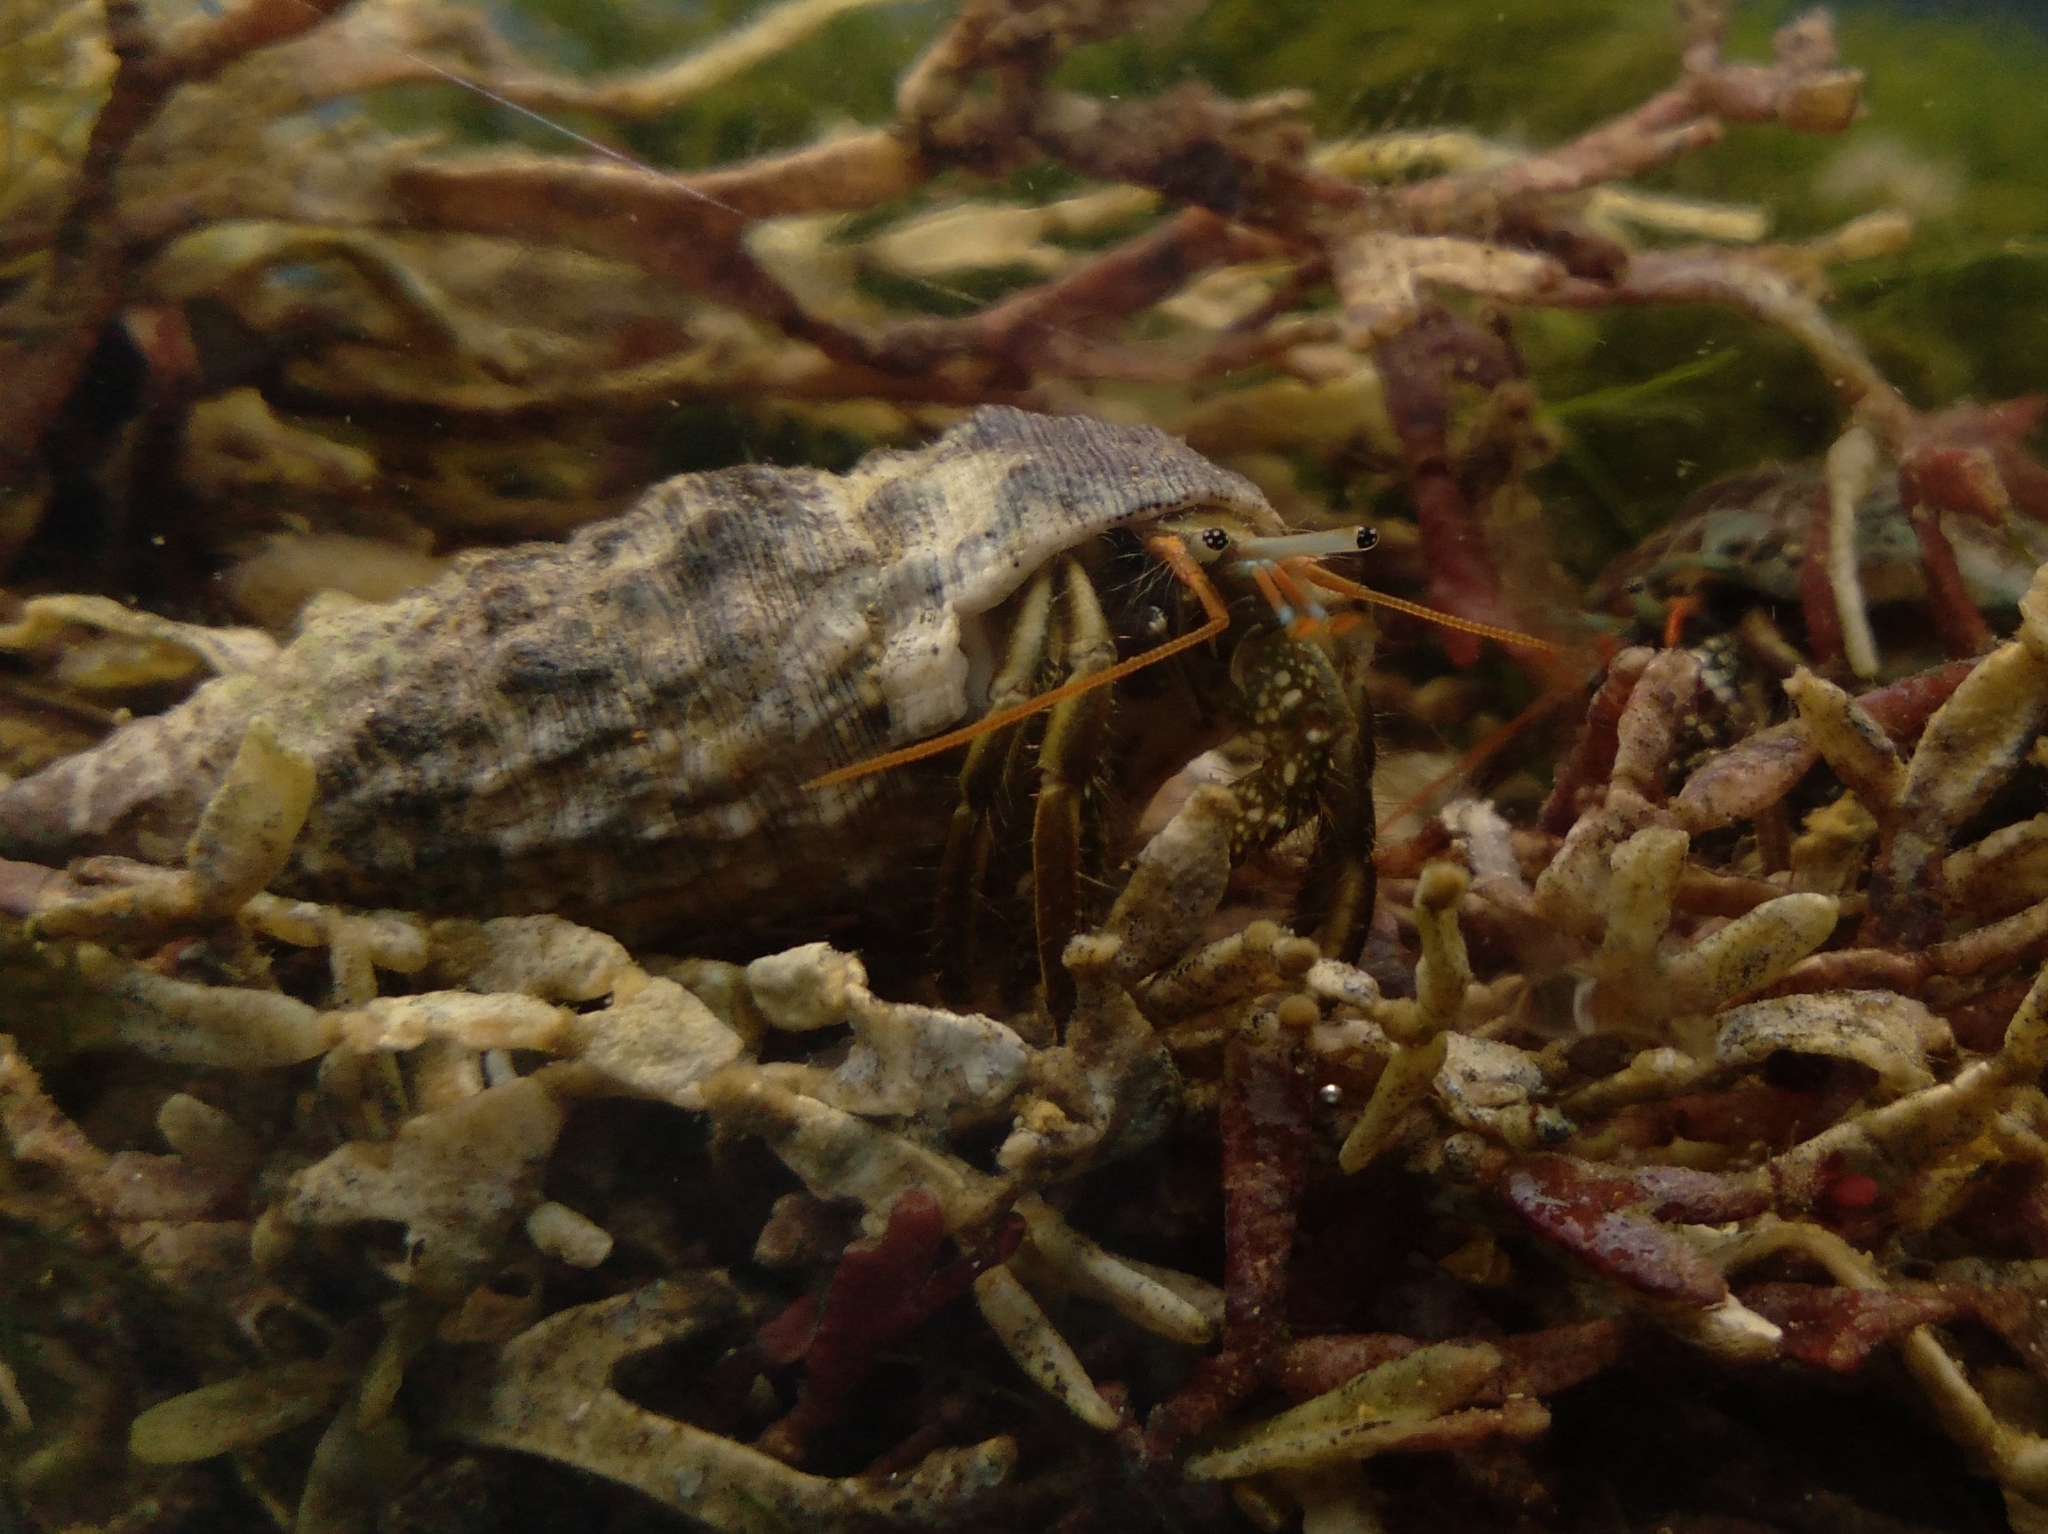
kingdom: Animalia
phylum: Arthropoda
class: Malacostraca
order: Decapoda
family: Diogenidae
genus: Clibanarius
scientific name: Clibanarius brasiliensis
